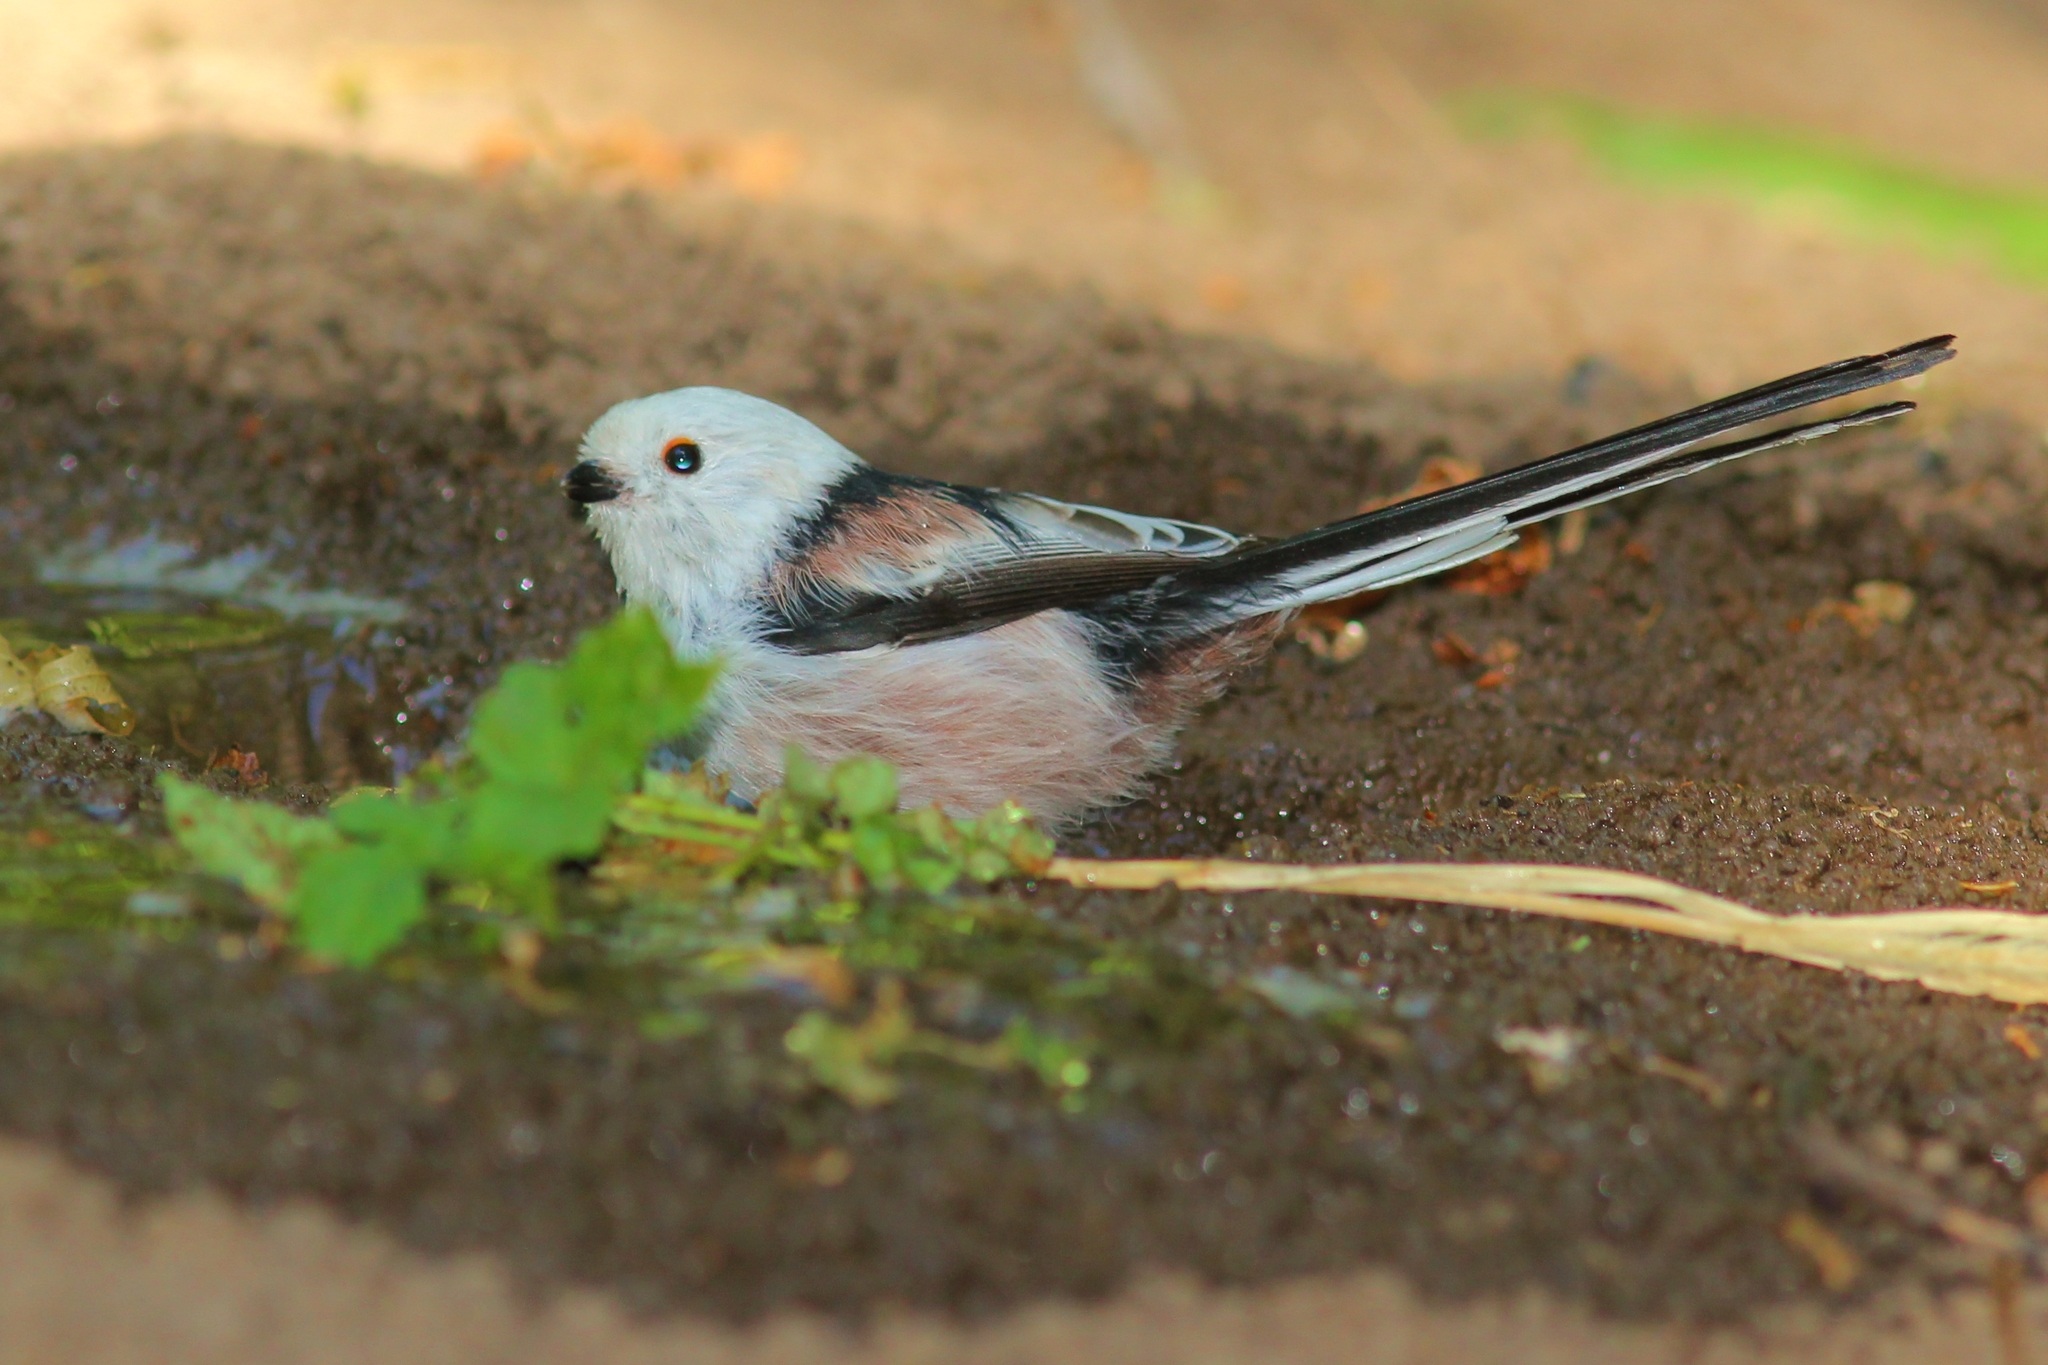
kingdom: Animalia
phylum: Chordata
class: Aves
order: Passeriformes
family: Aegithalidae
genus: Aegithalos
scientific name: Aegithalos caudatus
